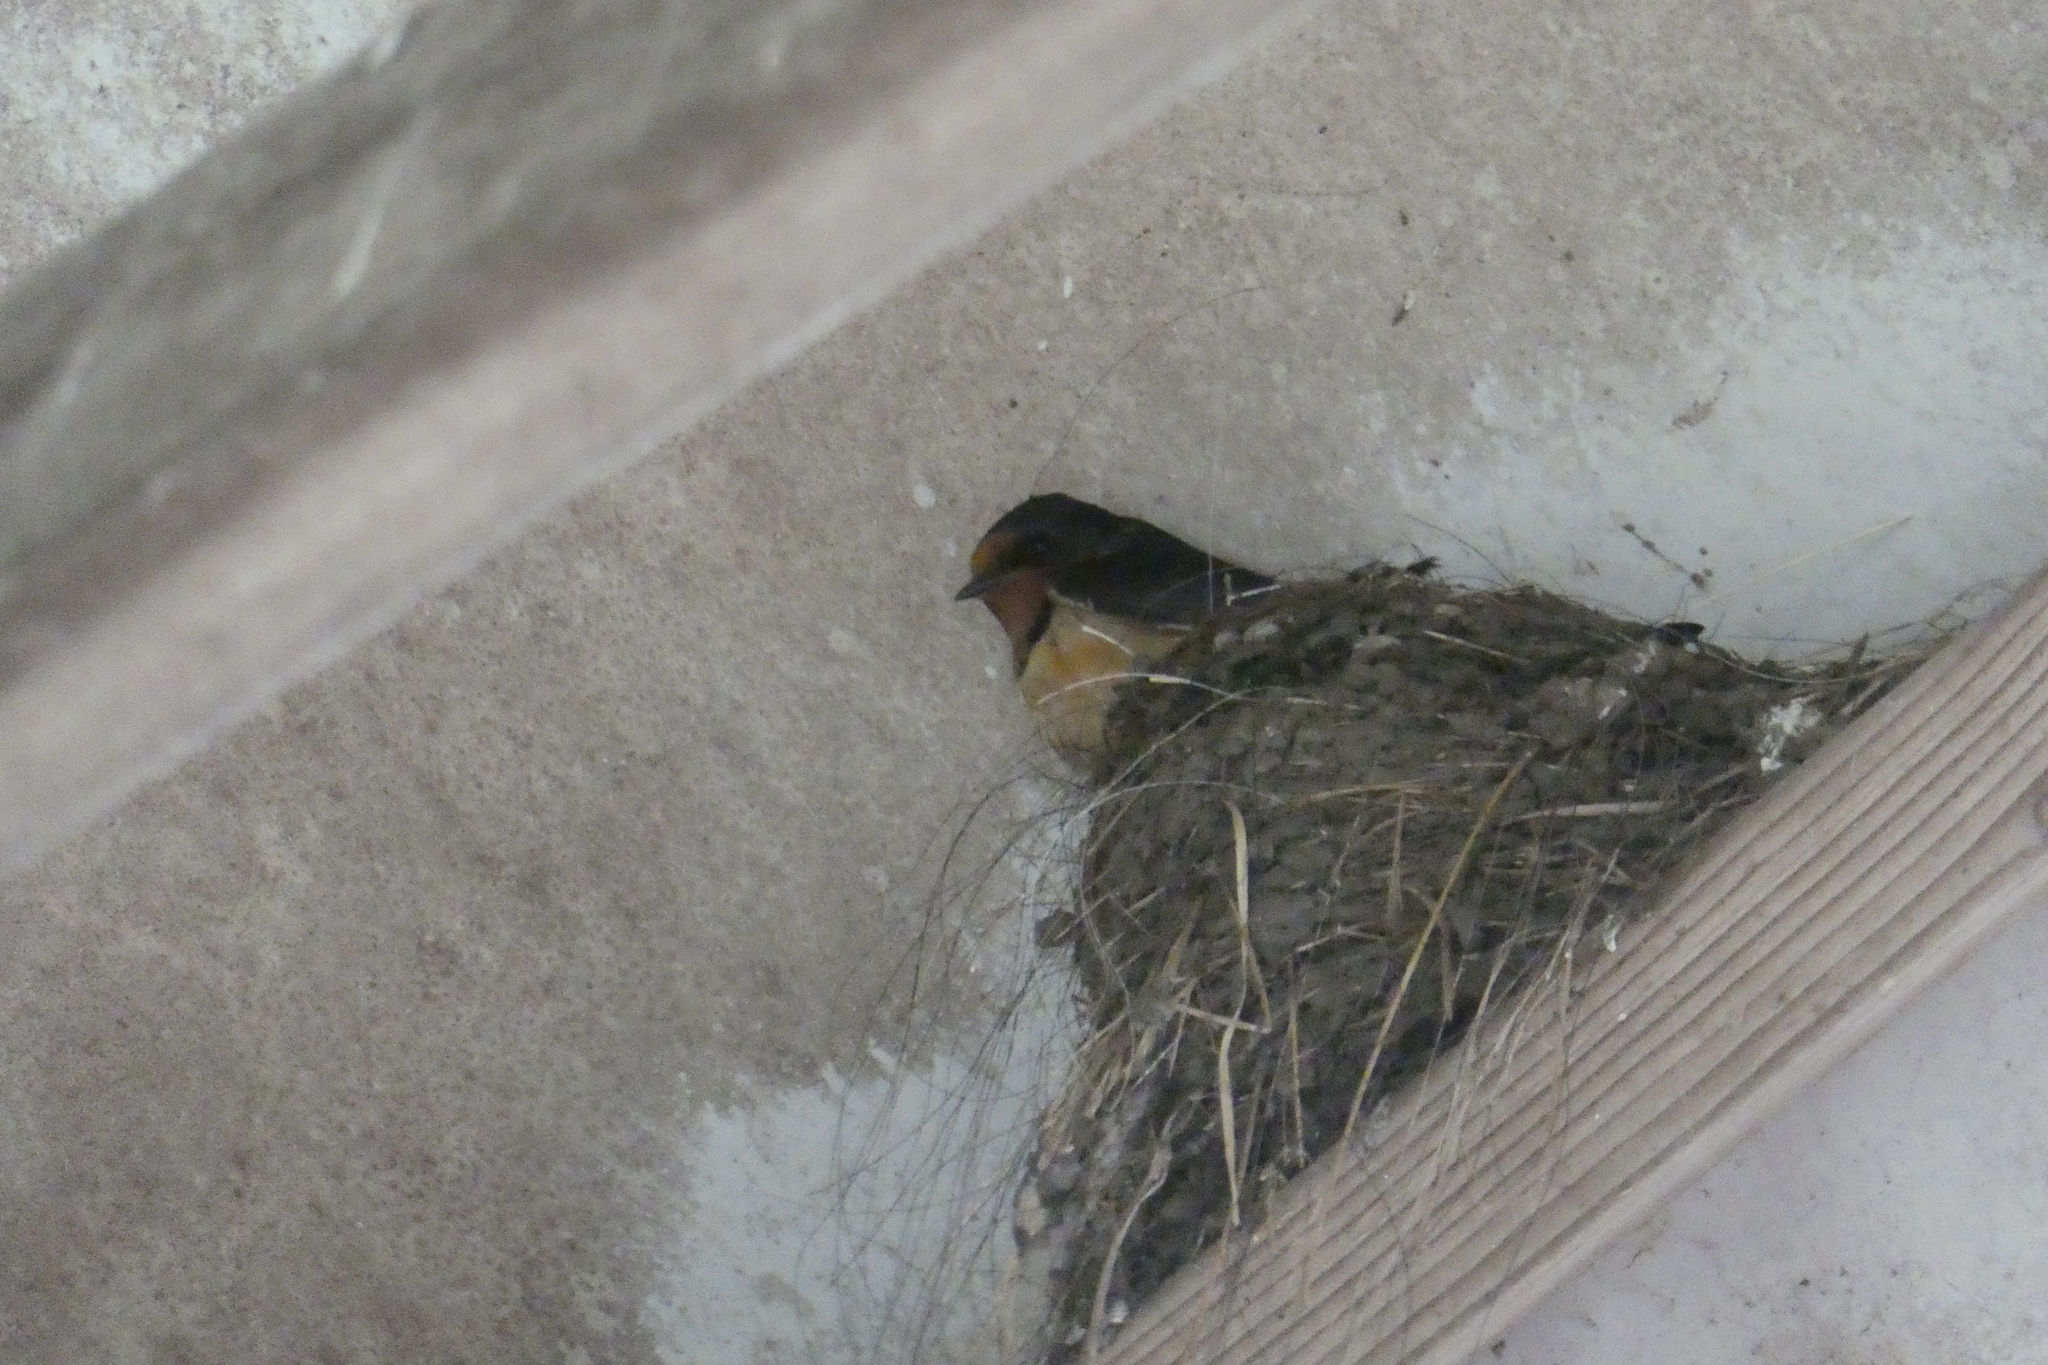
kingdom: Animalia
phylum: Chordata
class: Aves
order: Passeriformes
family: Hirundinidae
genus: Hirundo
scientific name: Hirundo rustica
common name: Barn swallow
